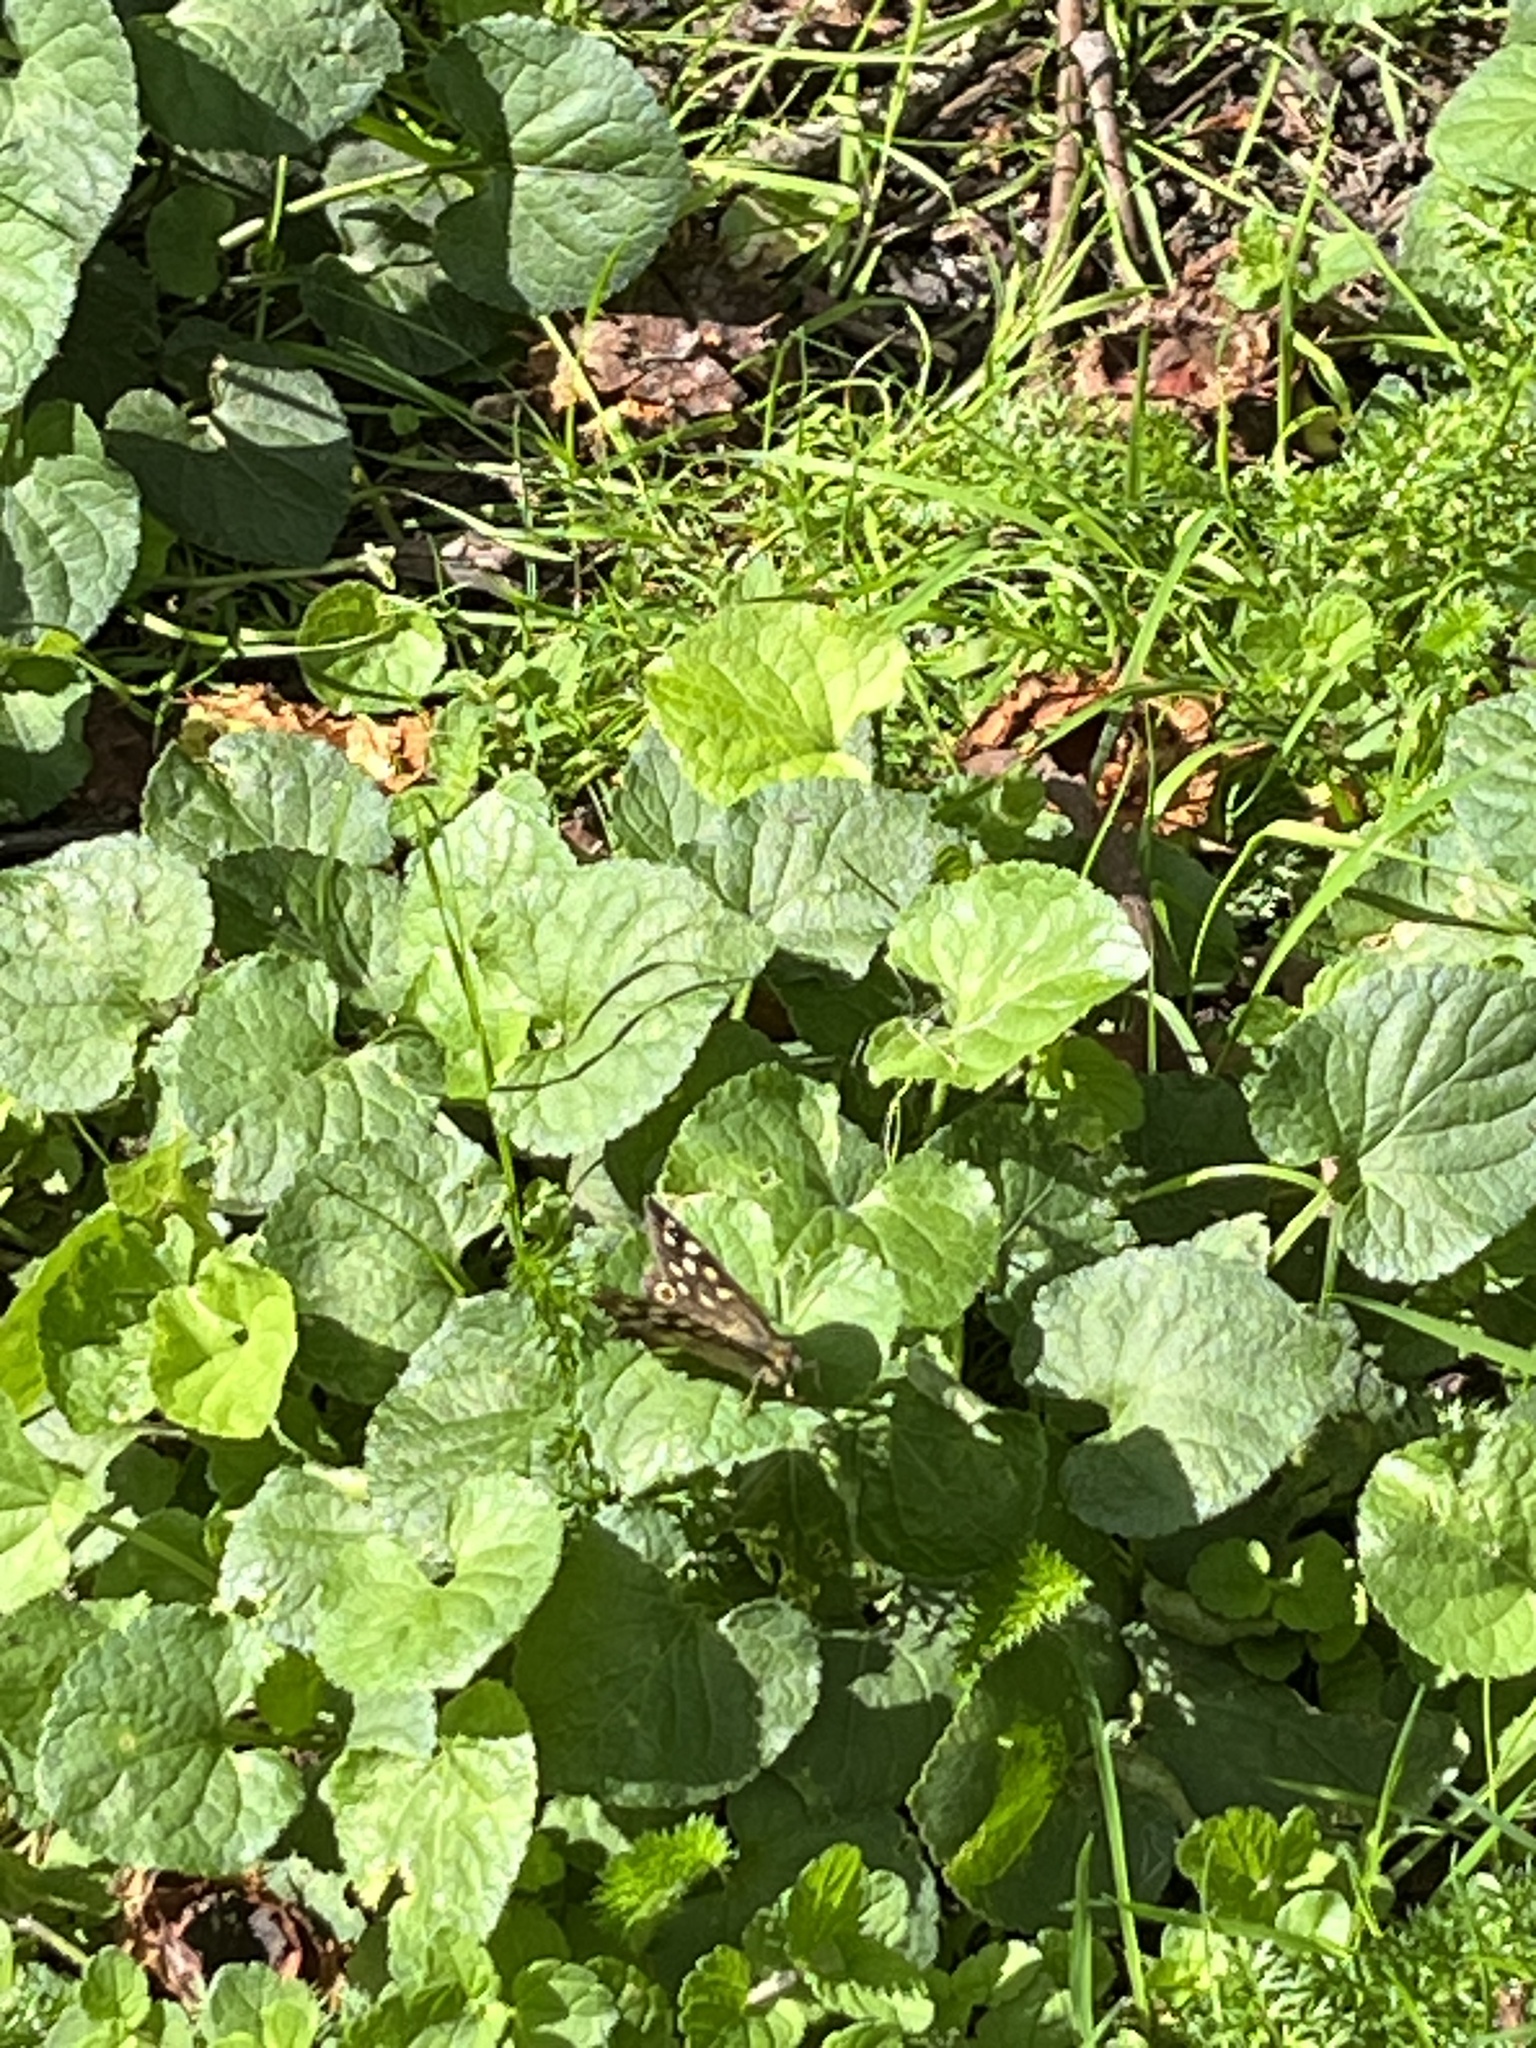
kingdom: Animalia
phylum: Arthropoda
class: Insecta
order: Lepidoptera
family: Nymphalidae
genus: Pararge
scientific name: Pararge aegeria
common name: Speckled wood
